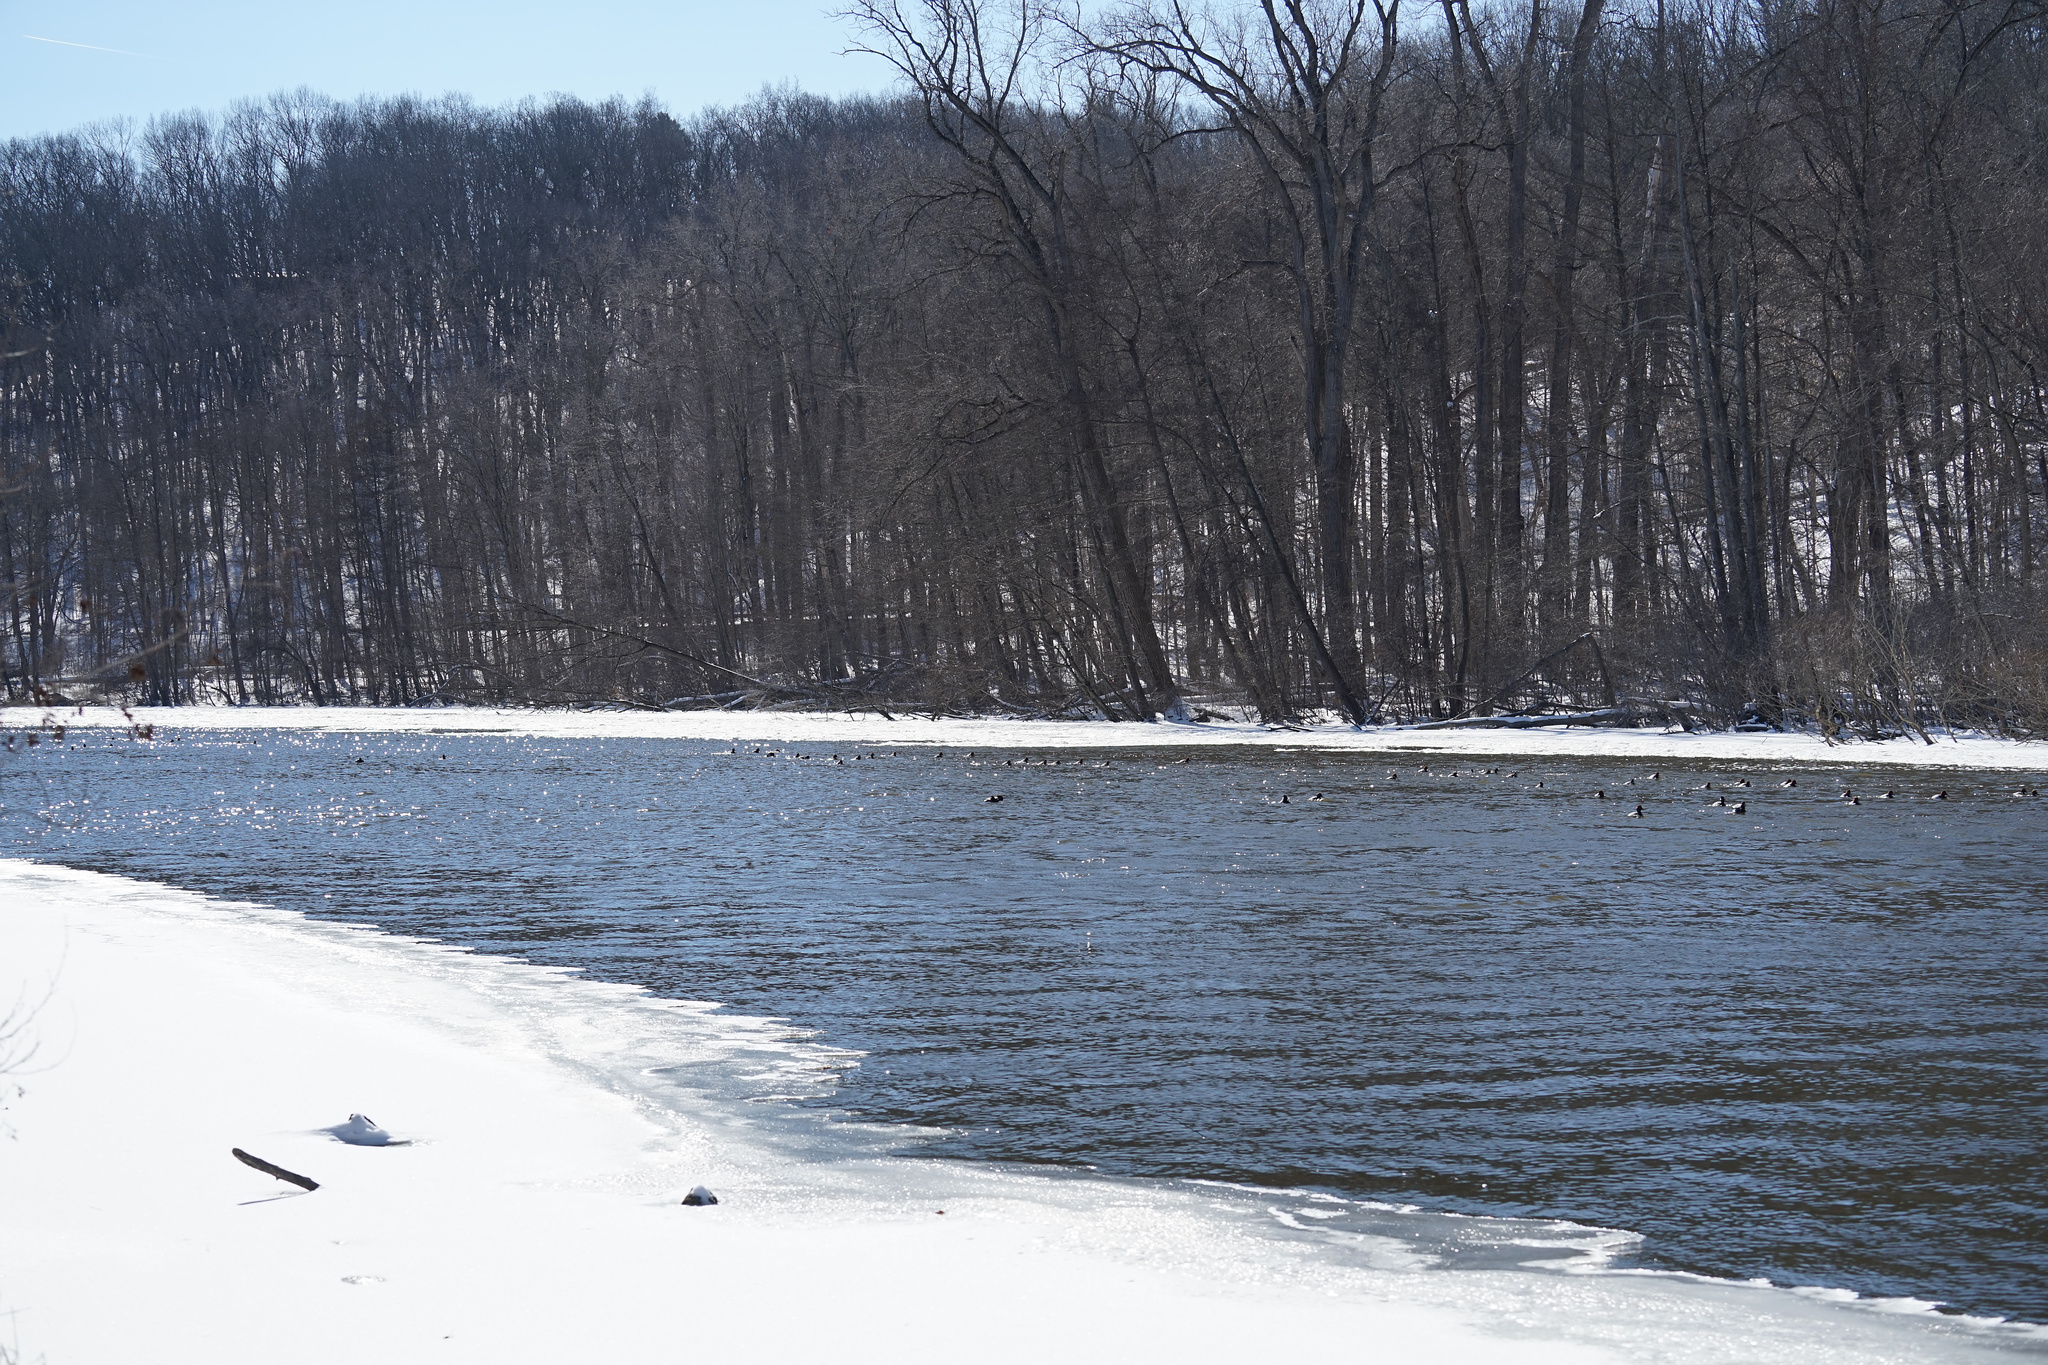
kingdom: Animalia
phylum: Chordata
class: Aves
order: Anseriformes
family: Anatidae
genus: Aythya
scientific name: Aythya americana
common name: Redhead
